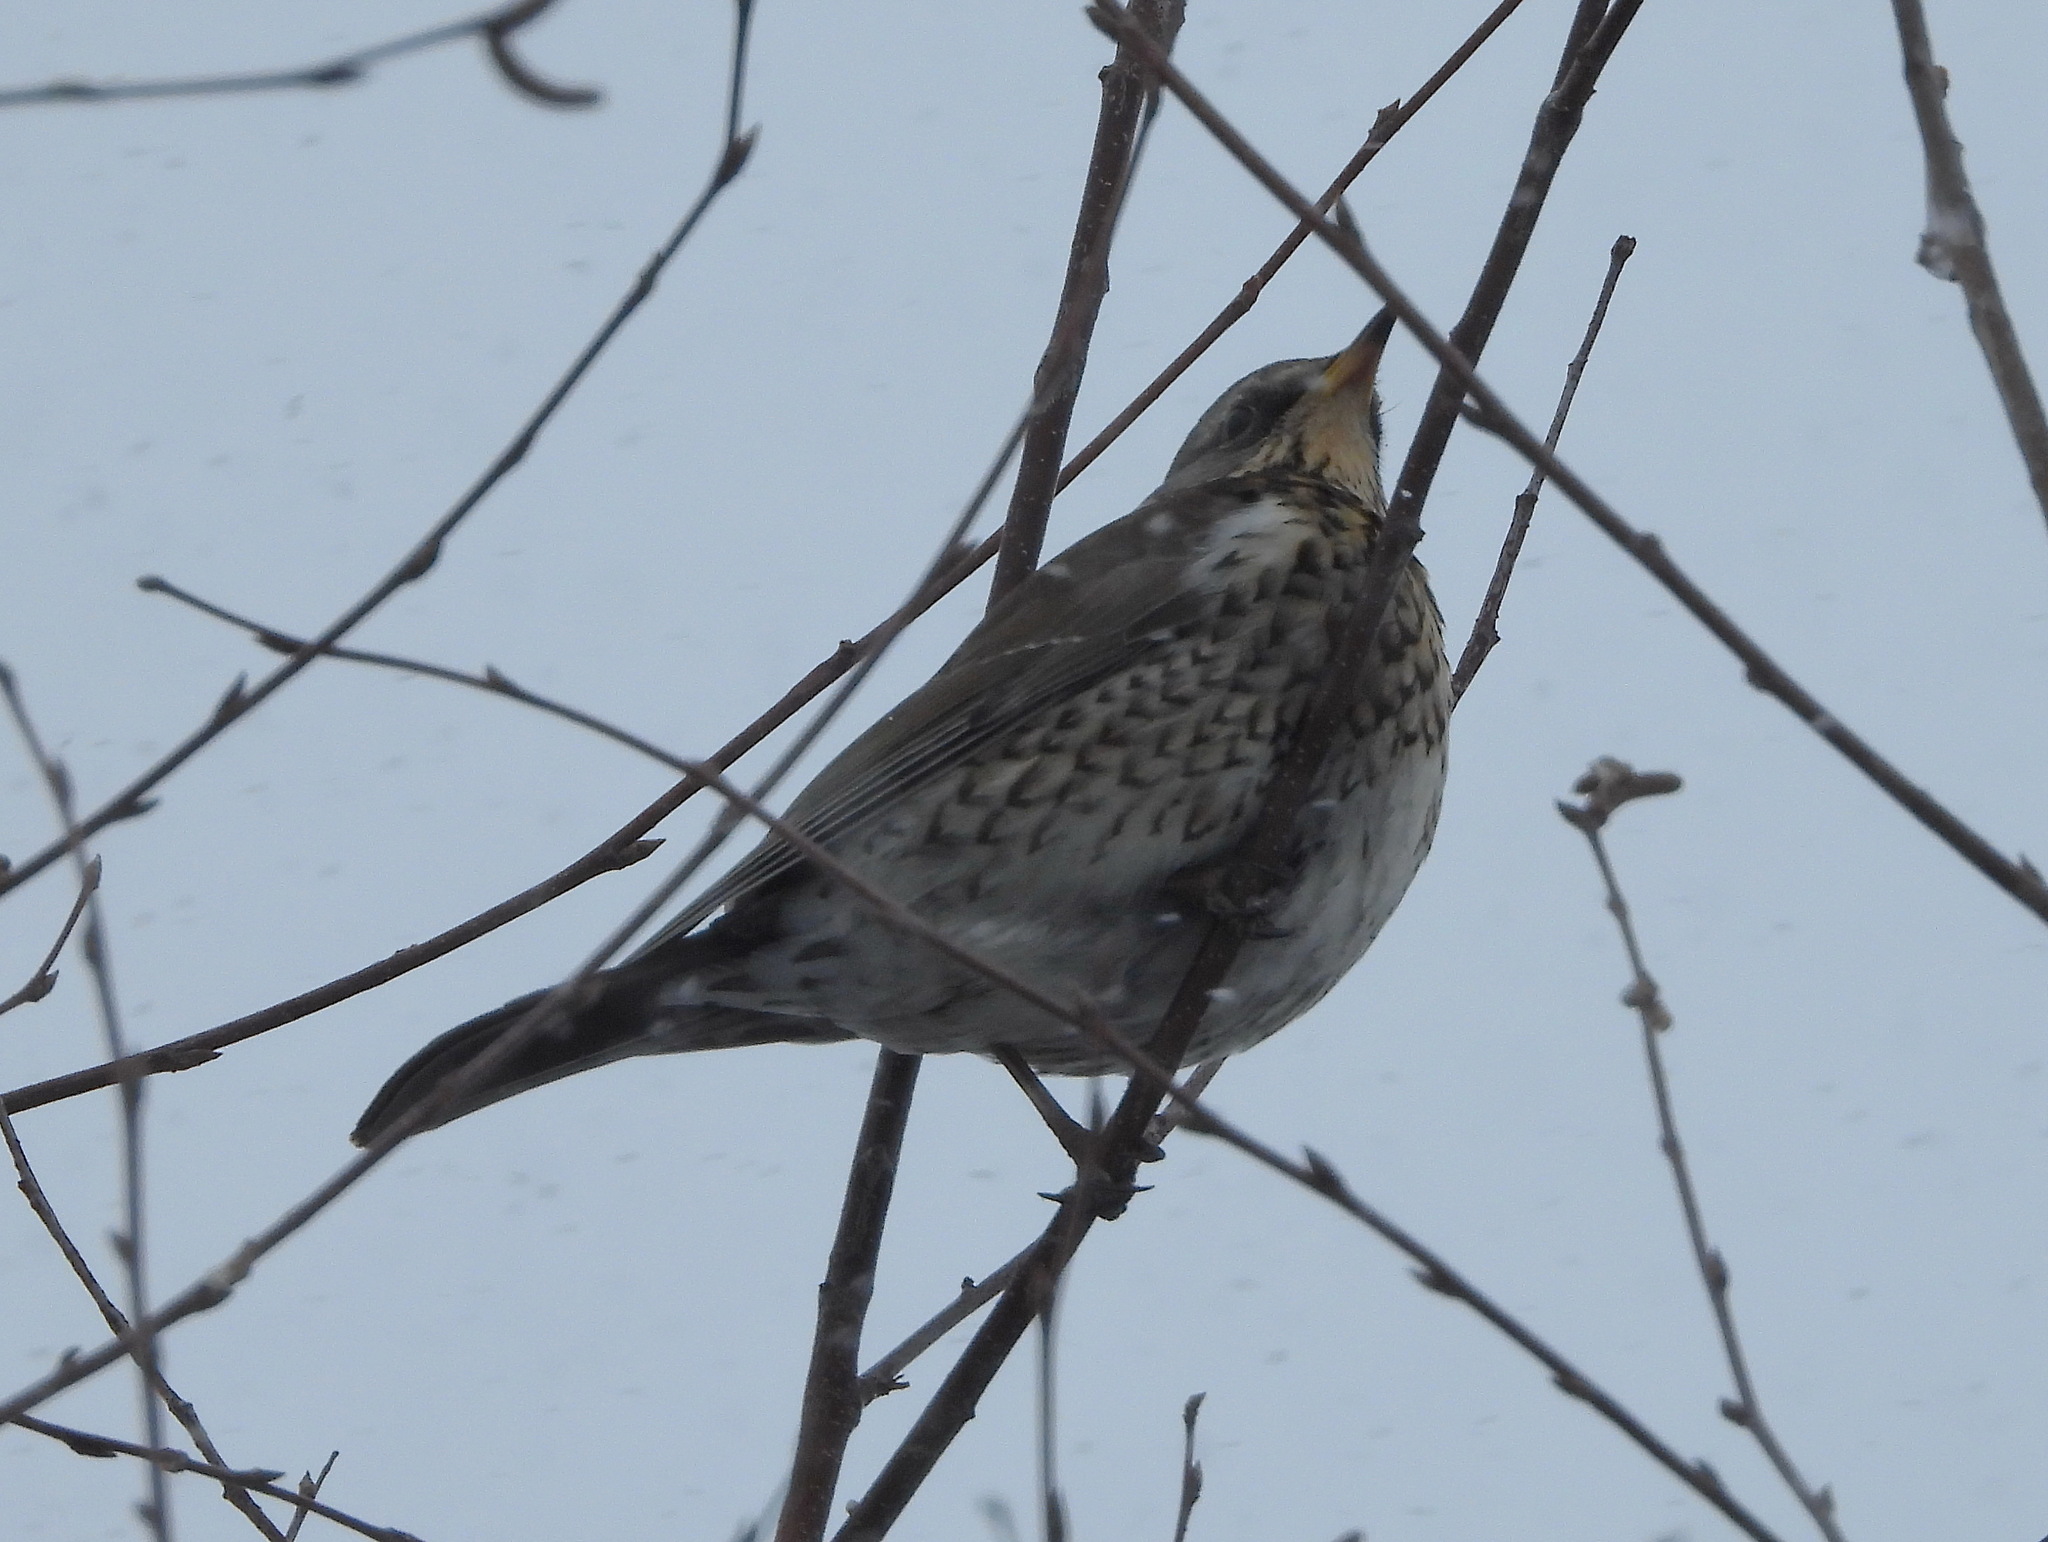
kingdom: Animalia
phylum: Chordata
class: Aves
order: Passeriformes
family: Turdidae
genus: Turdus
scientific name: Turdus pilaris
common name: Fieldfare
